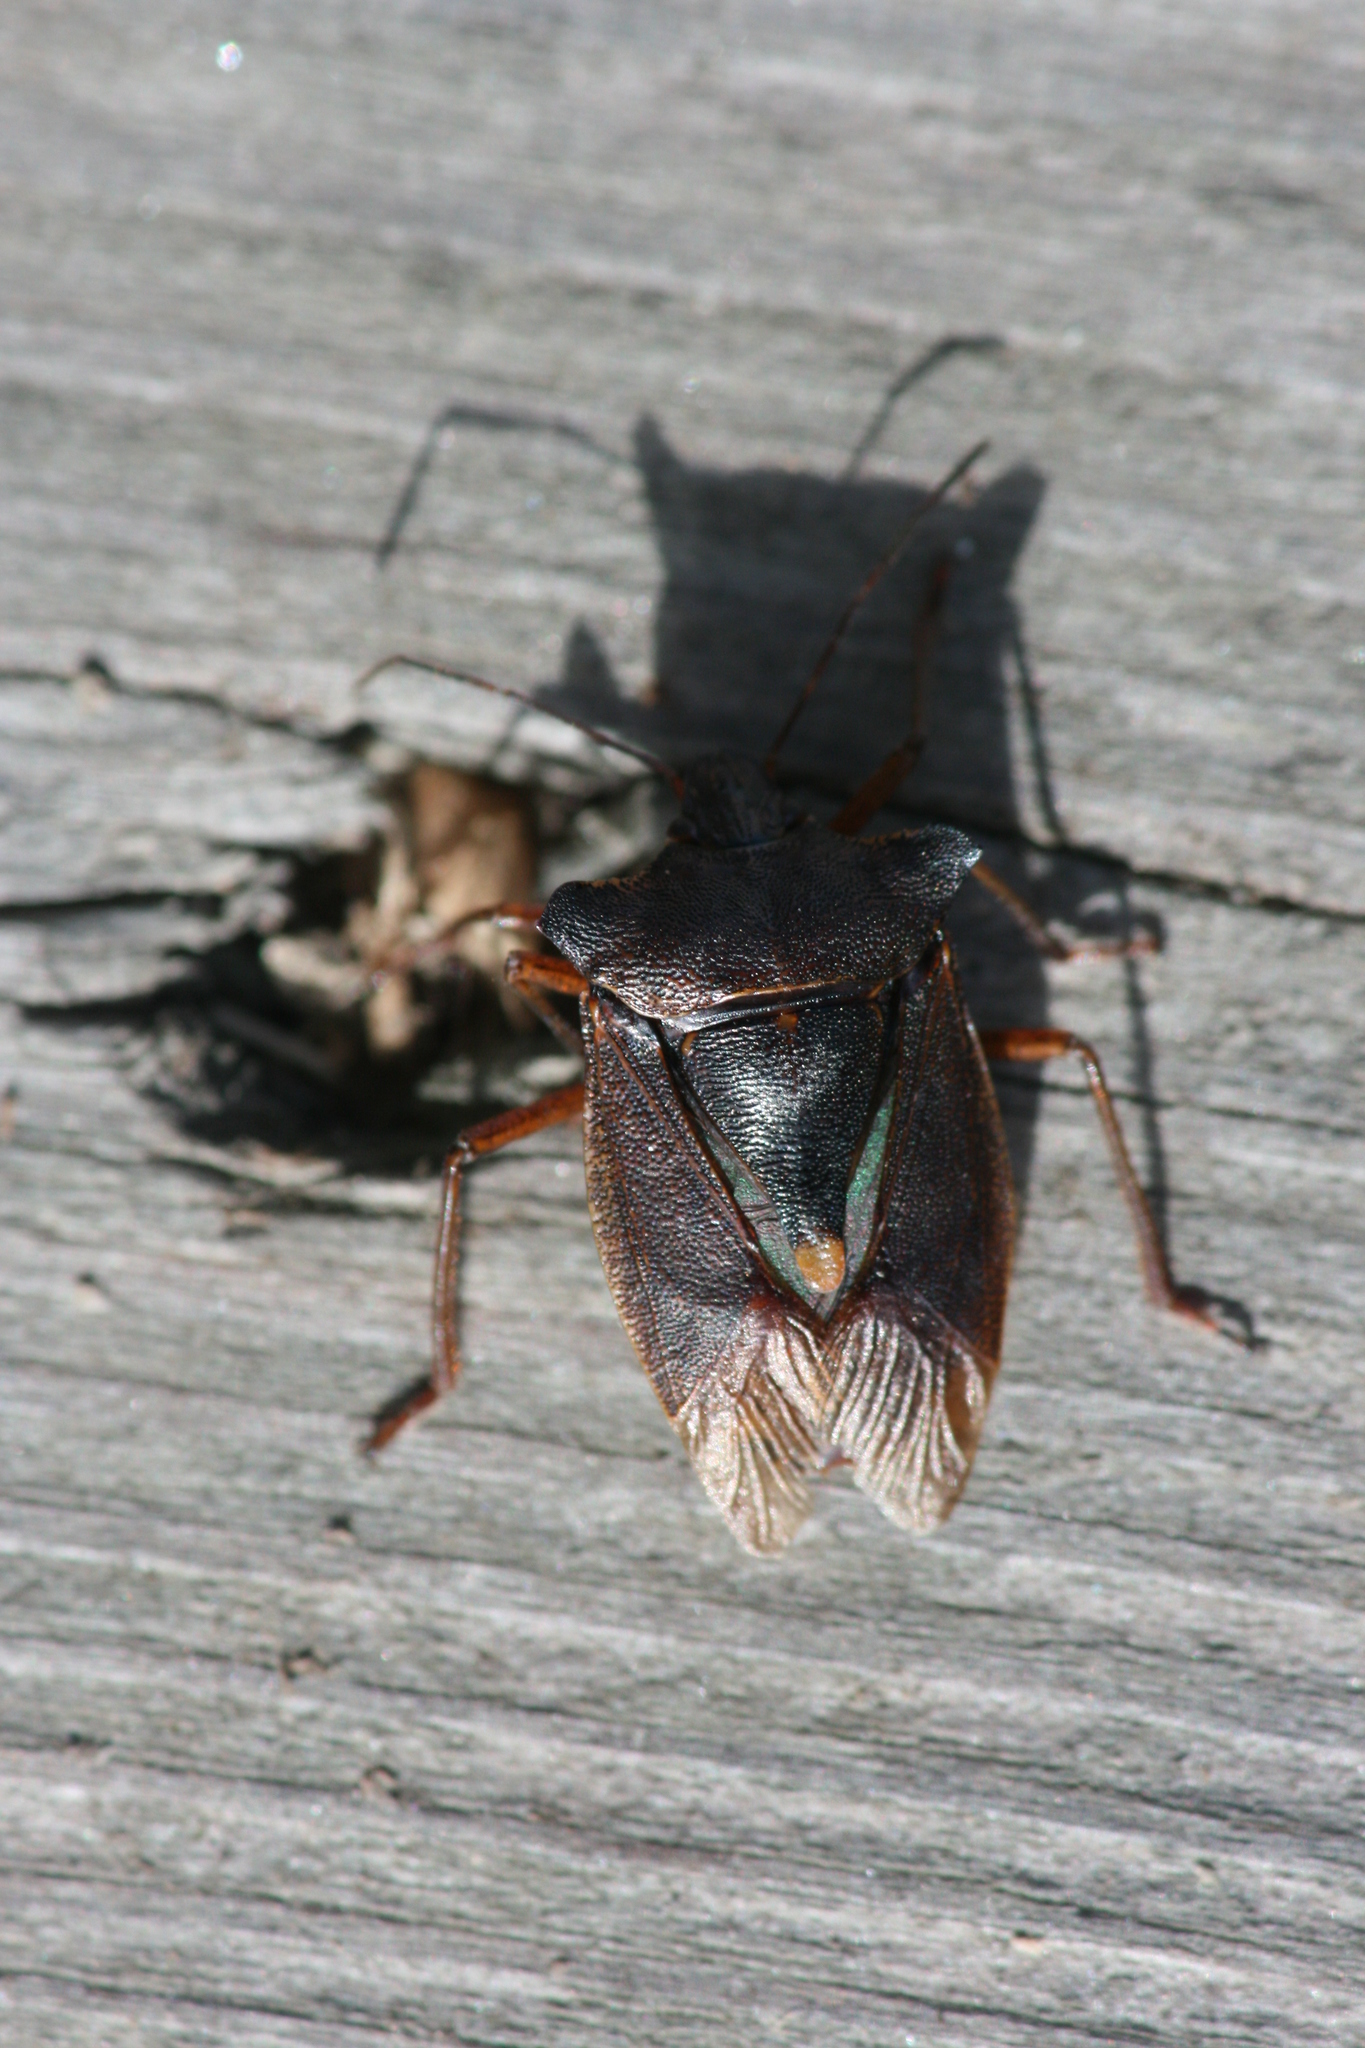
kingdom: Animalia
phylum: Arthropoda
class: Insecta
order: Hemiptera
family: Pentatomidae
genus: Pentatoma
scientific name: Pentatoma rufipes
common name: Forest bug
